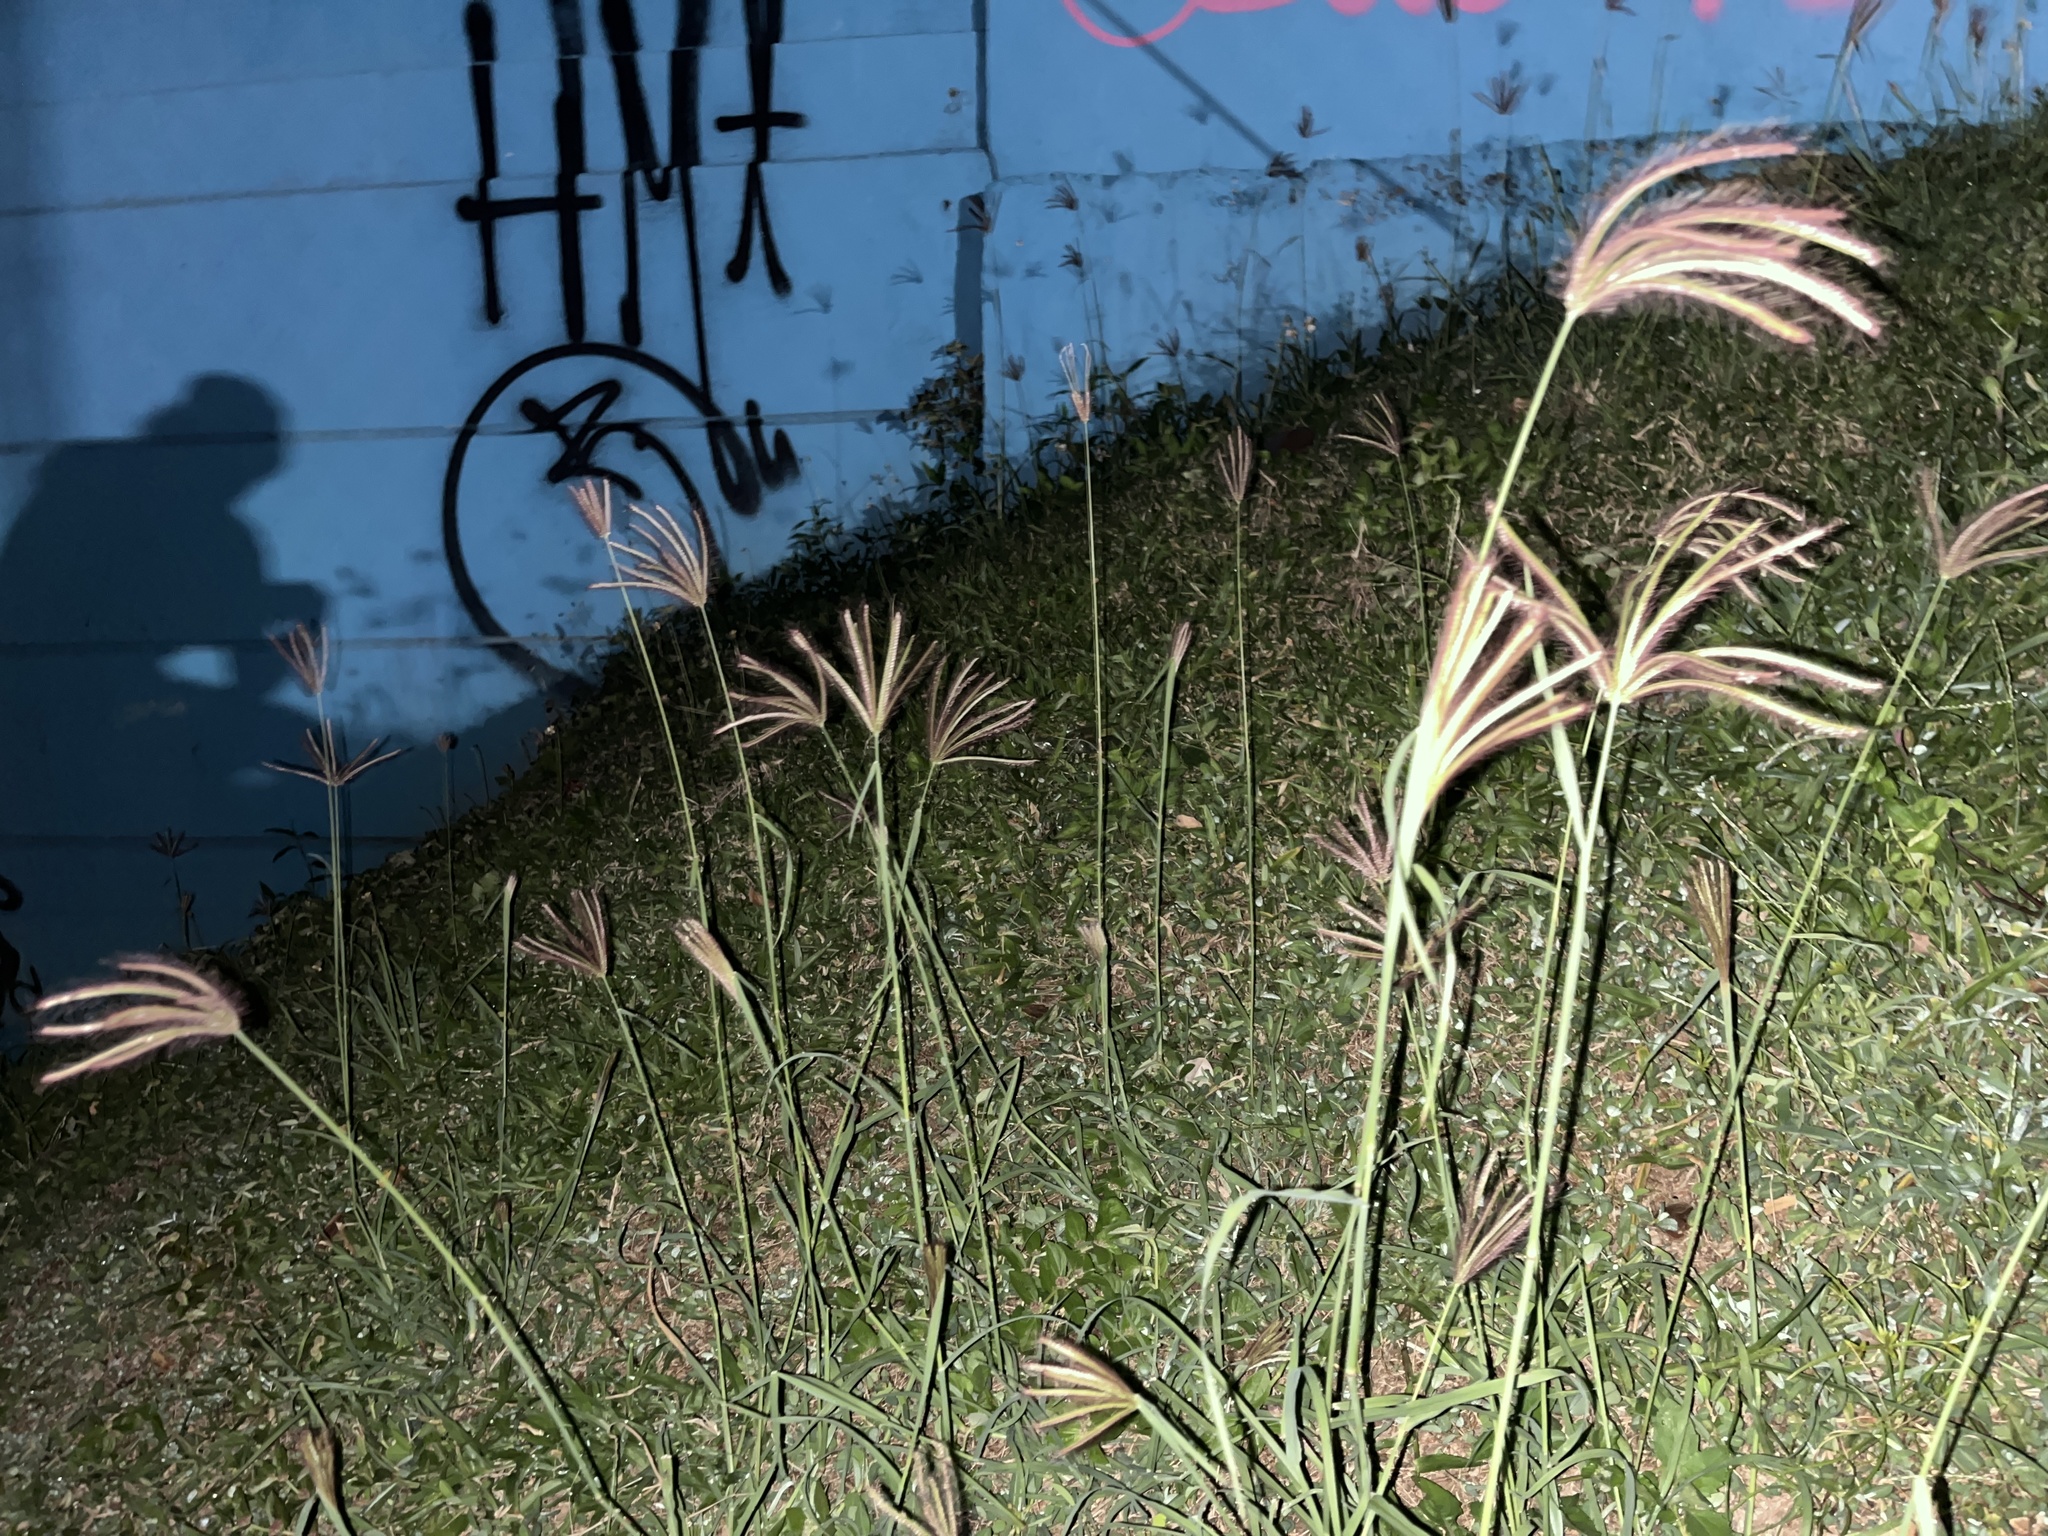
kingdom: Plantae
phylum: Tracheophyta
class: Liliopsida
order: Poales
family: Poaceae
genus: Chloris
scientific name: Chloris barbata
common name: Swollen fingergrass
